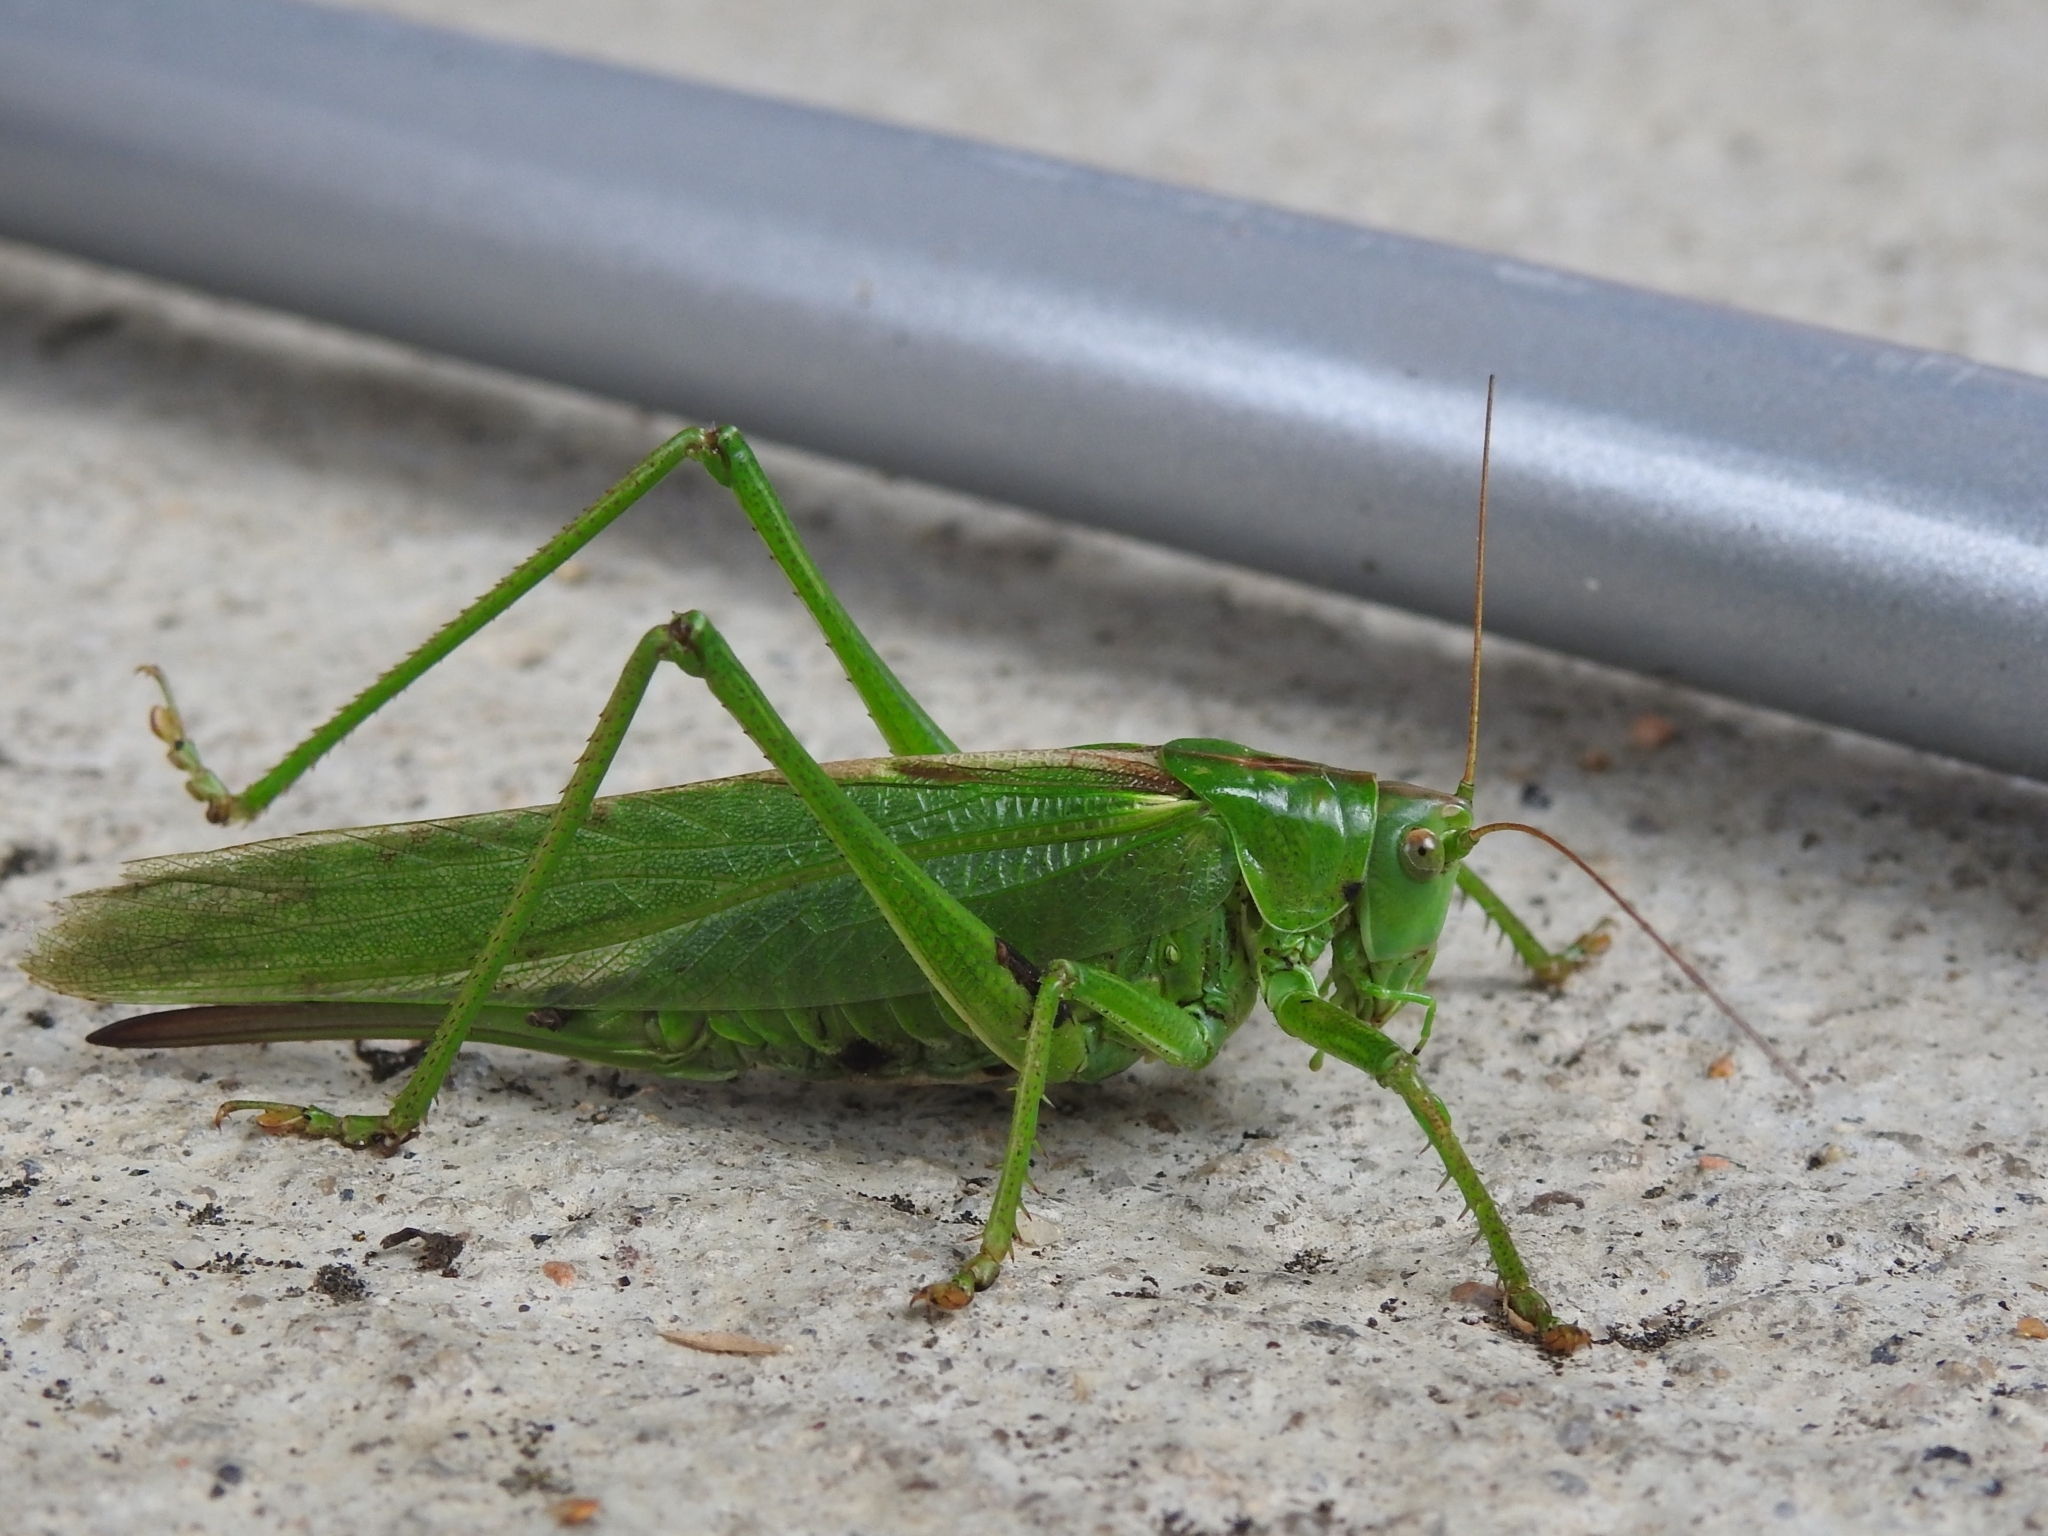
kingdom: Animalia
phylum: Arthropoda
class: Insecta
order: Orthoptera
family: Tettigoniidae
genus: Tettigonia
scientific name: Tettigonia viridissima
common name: Great green bush-cricket
